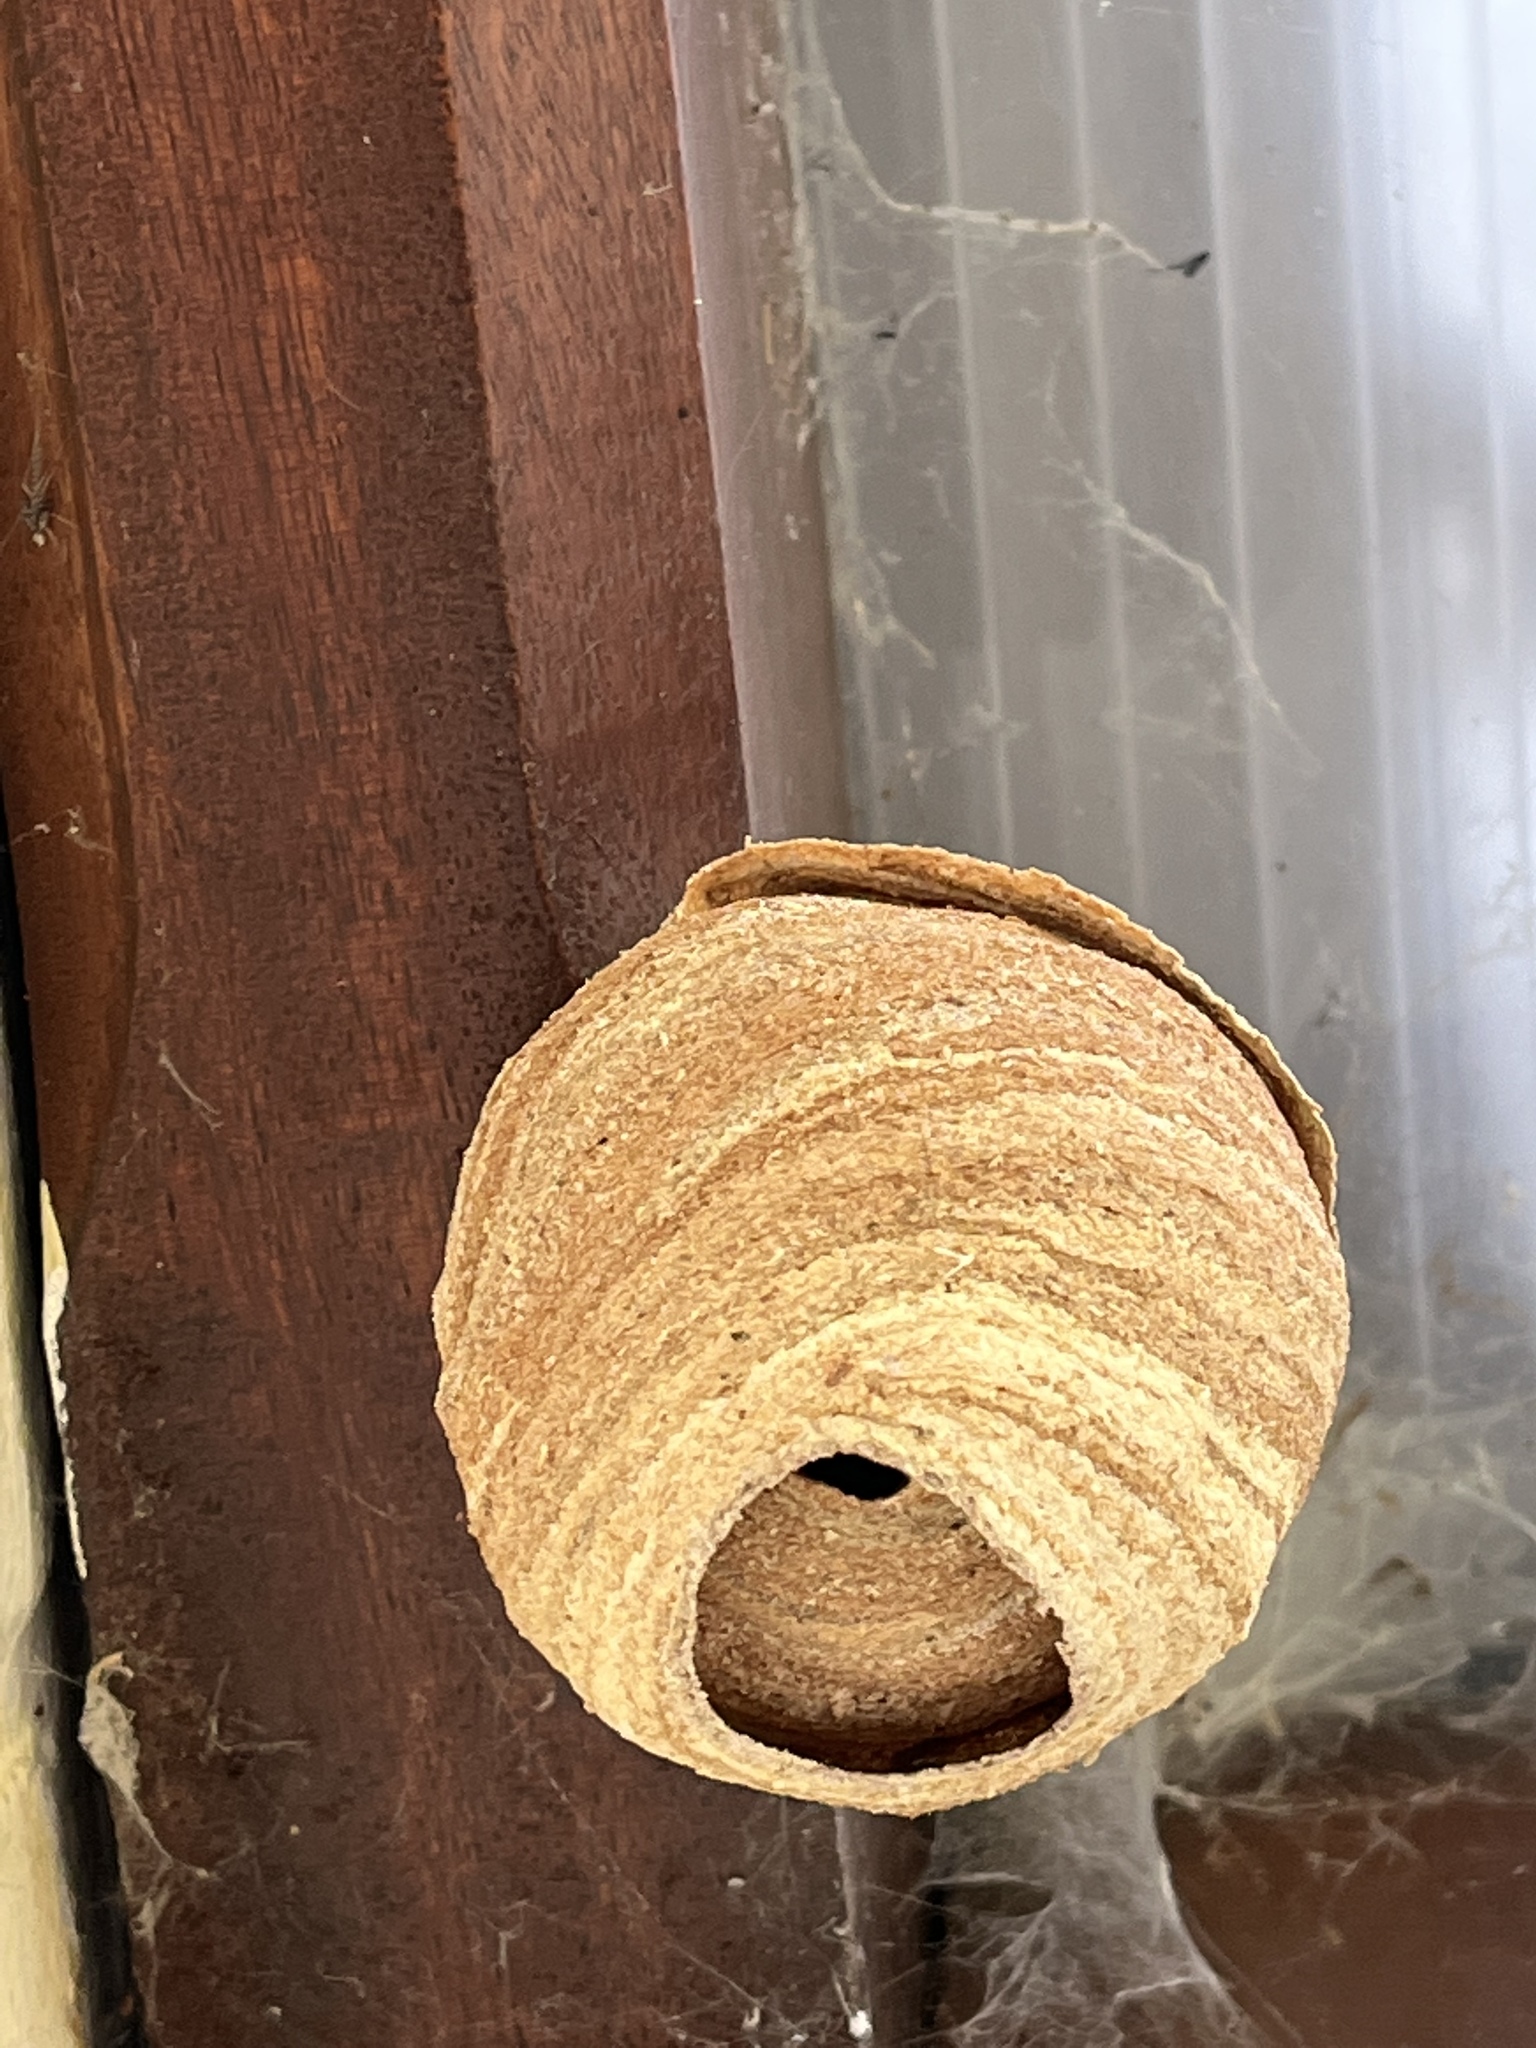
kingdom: Animalia
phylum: Arthropoda
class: Insecta
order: Hymenoptera
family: Vespidae
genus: Vespa
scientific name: Vespa velutina
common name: Asian hornet
